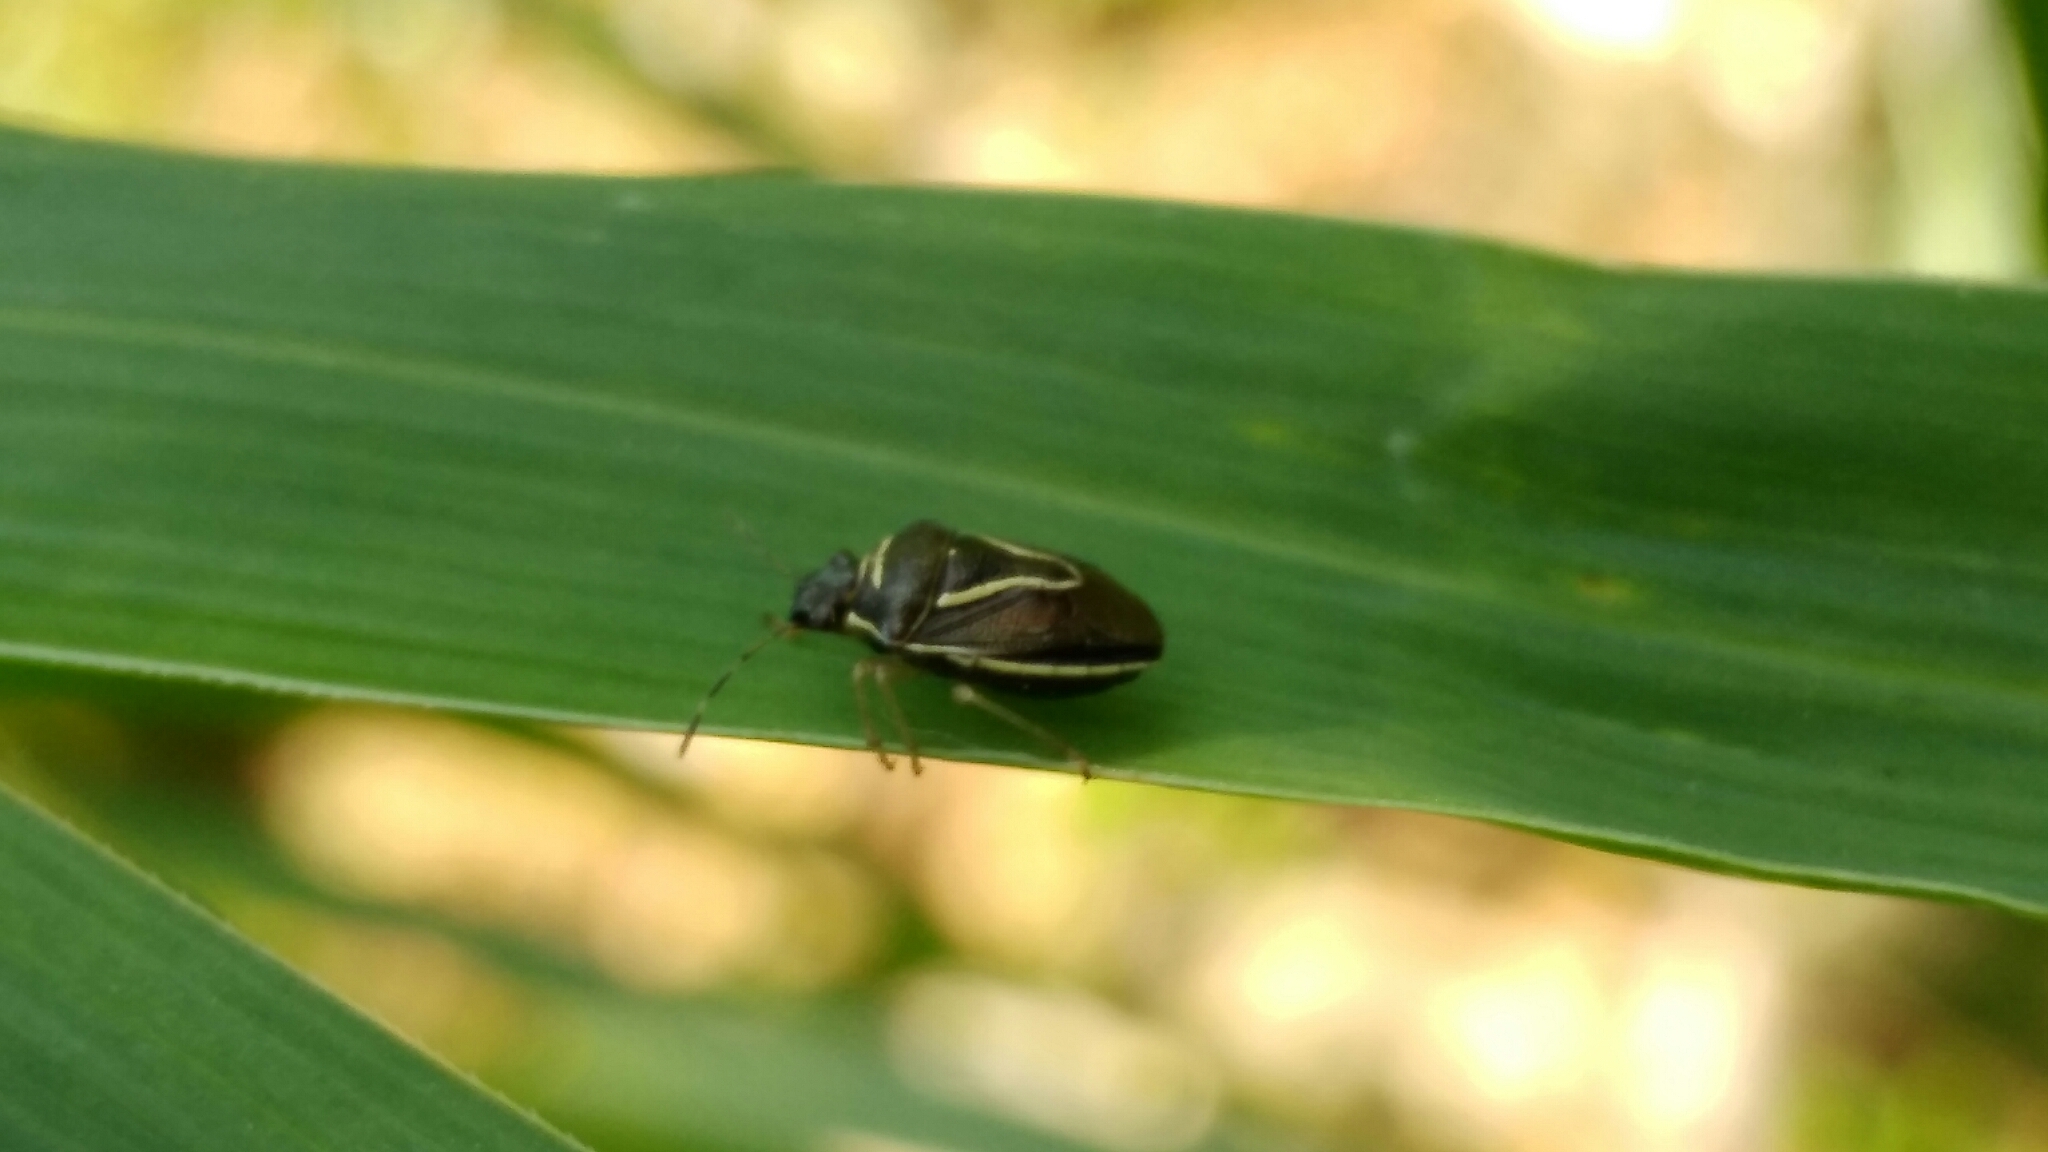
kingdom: Animalia
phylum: Arthropoda
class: Insecta
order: Hemiptera
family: Pentatomidae
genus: Mormidea
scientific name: Mormidea lugens
